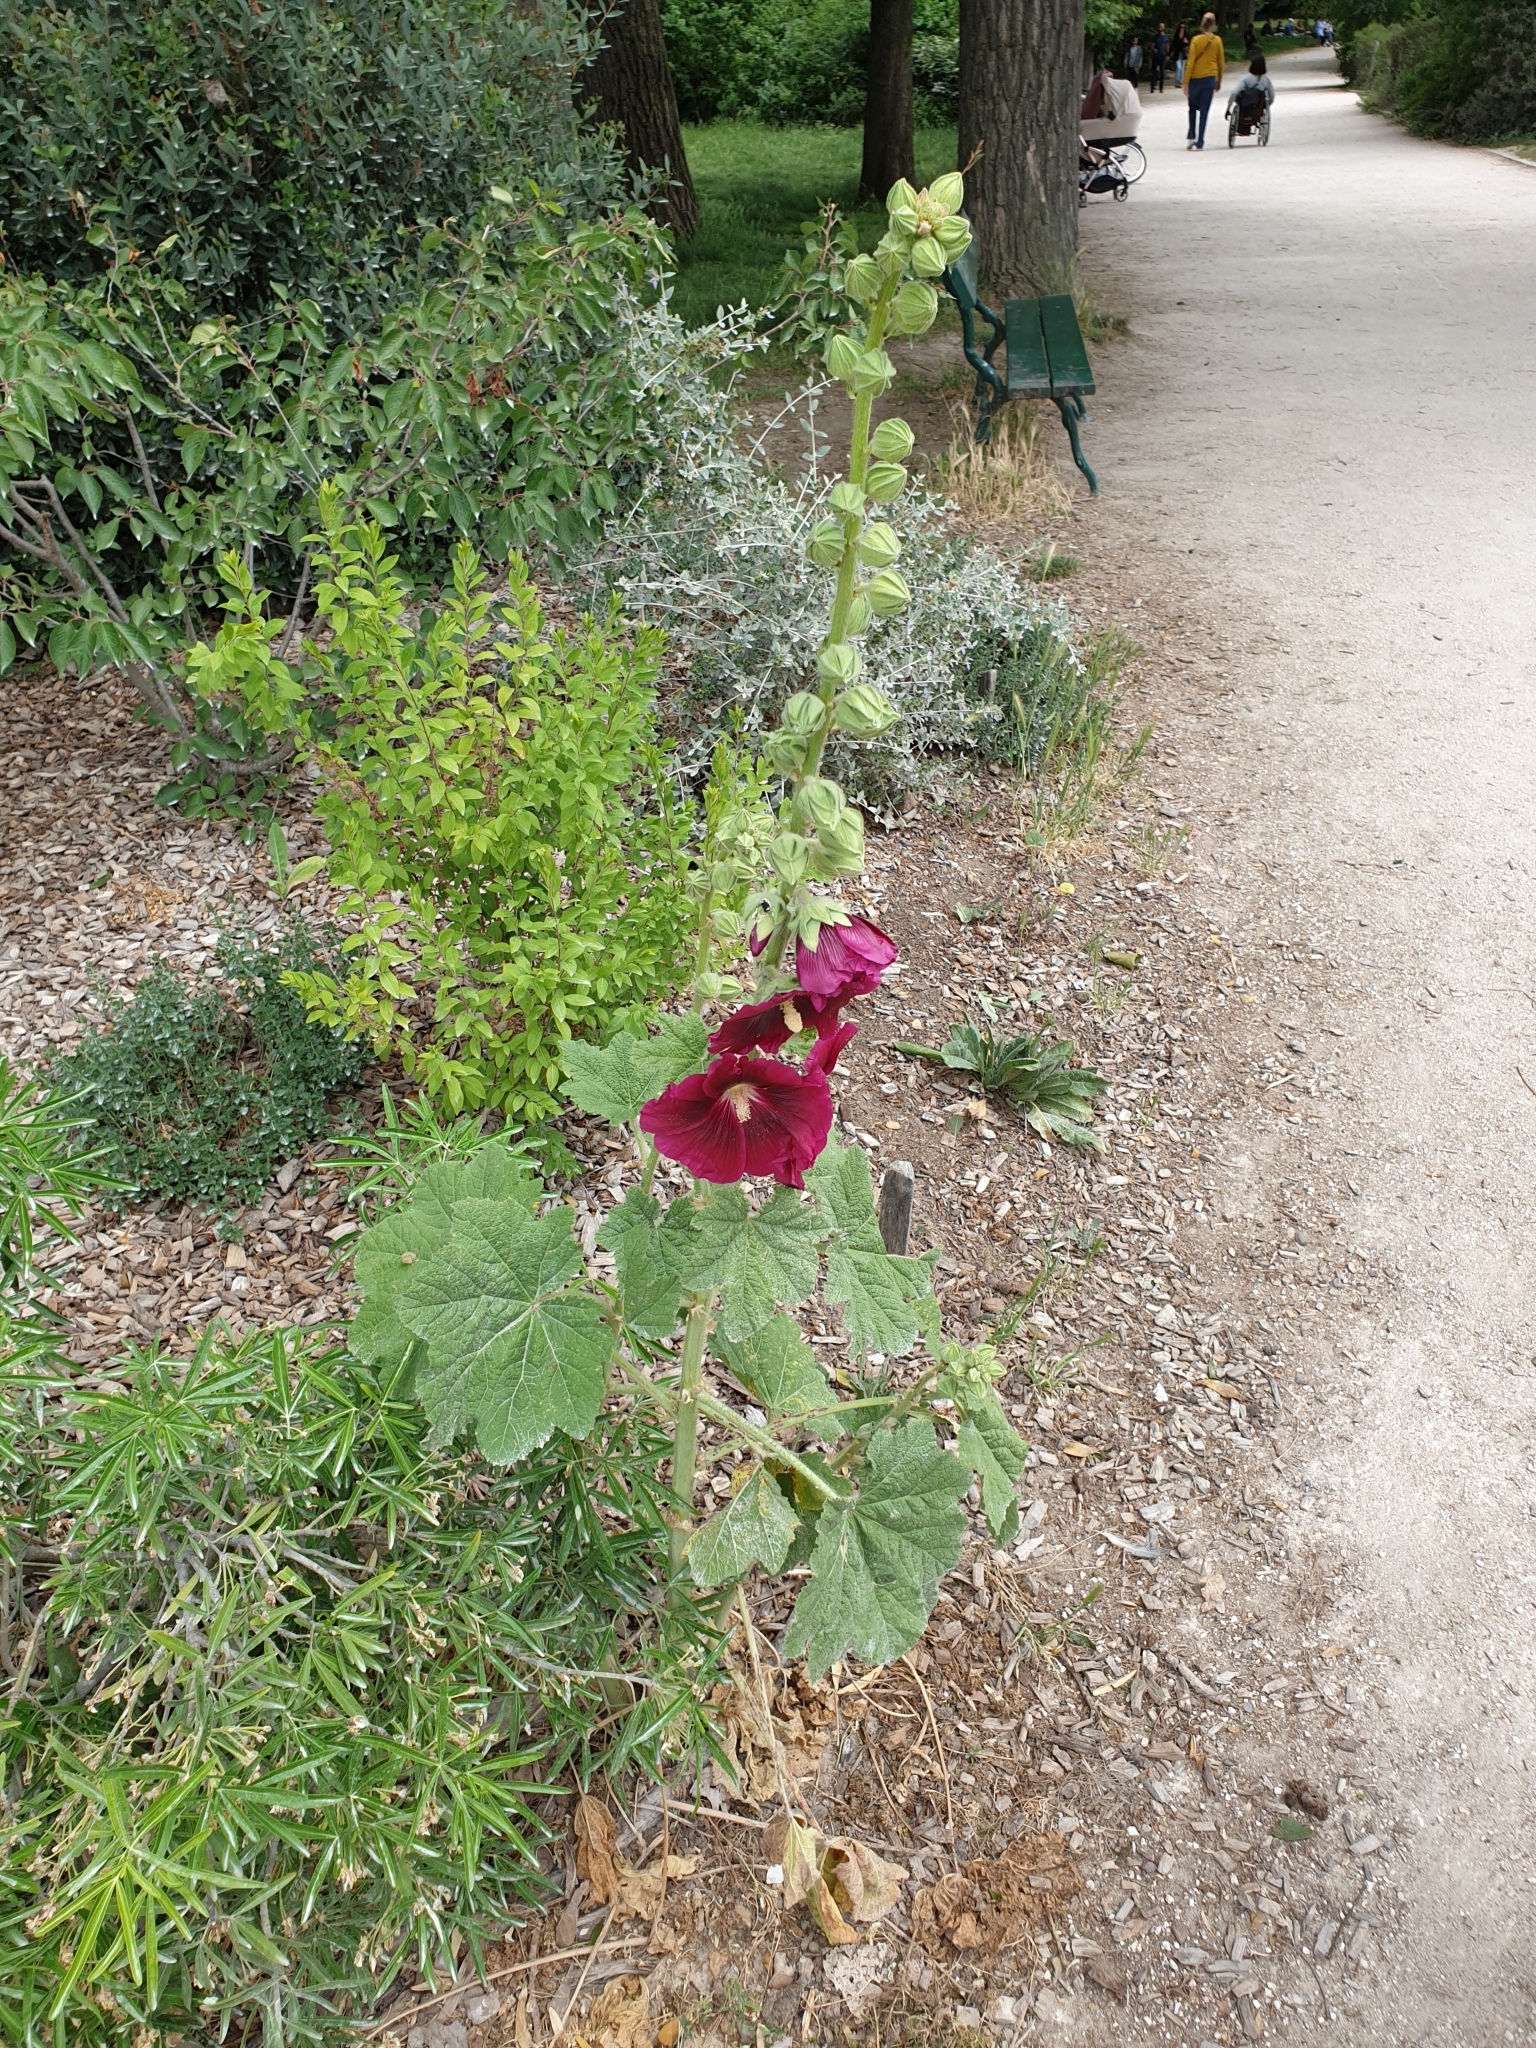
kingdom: Plantae
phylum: Tracheophyta
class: Magnoliopsida
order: Malvales
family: Malvaceae
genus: Alcea
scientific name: Alcea rosea
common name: Hollyhock
